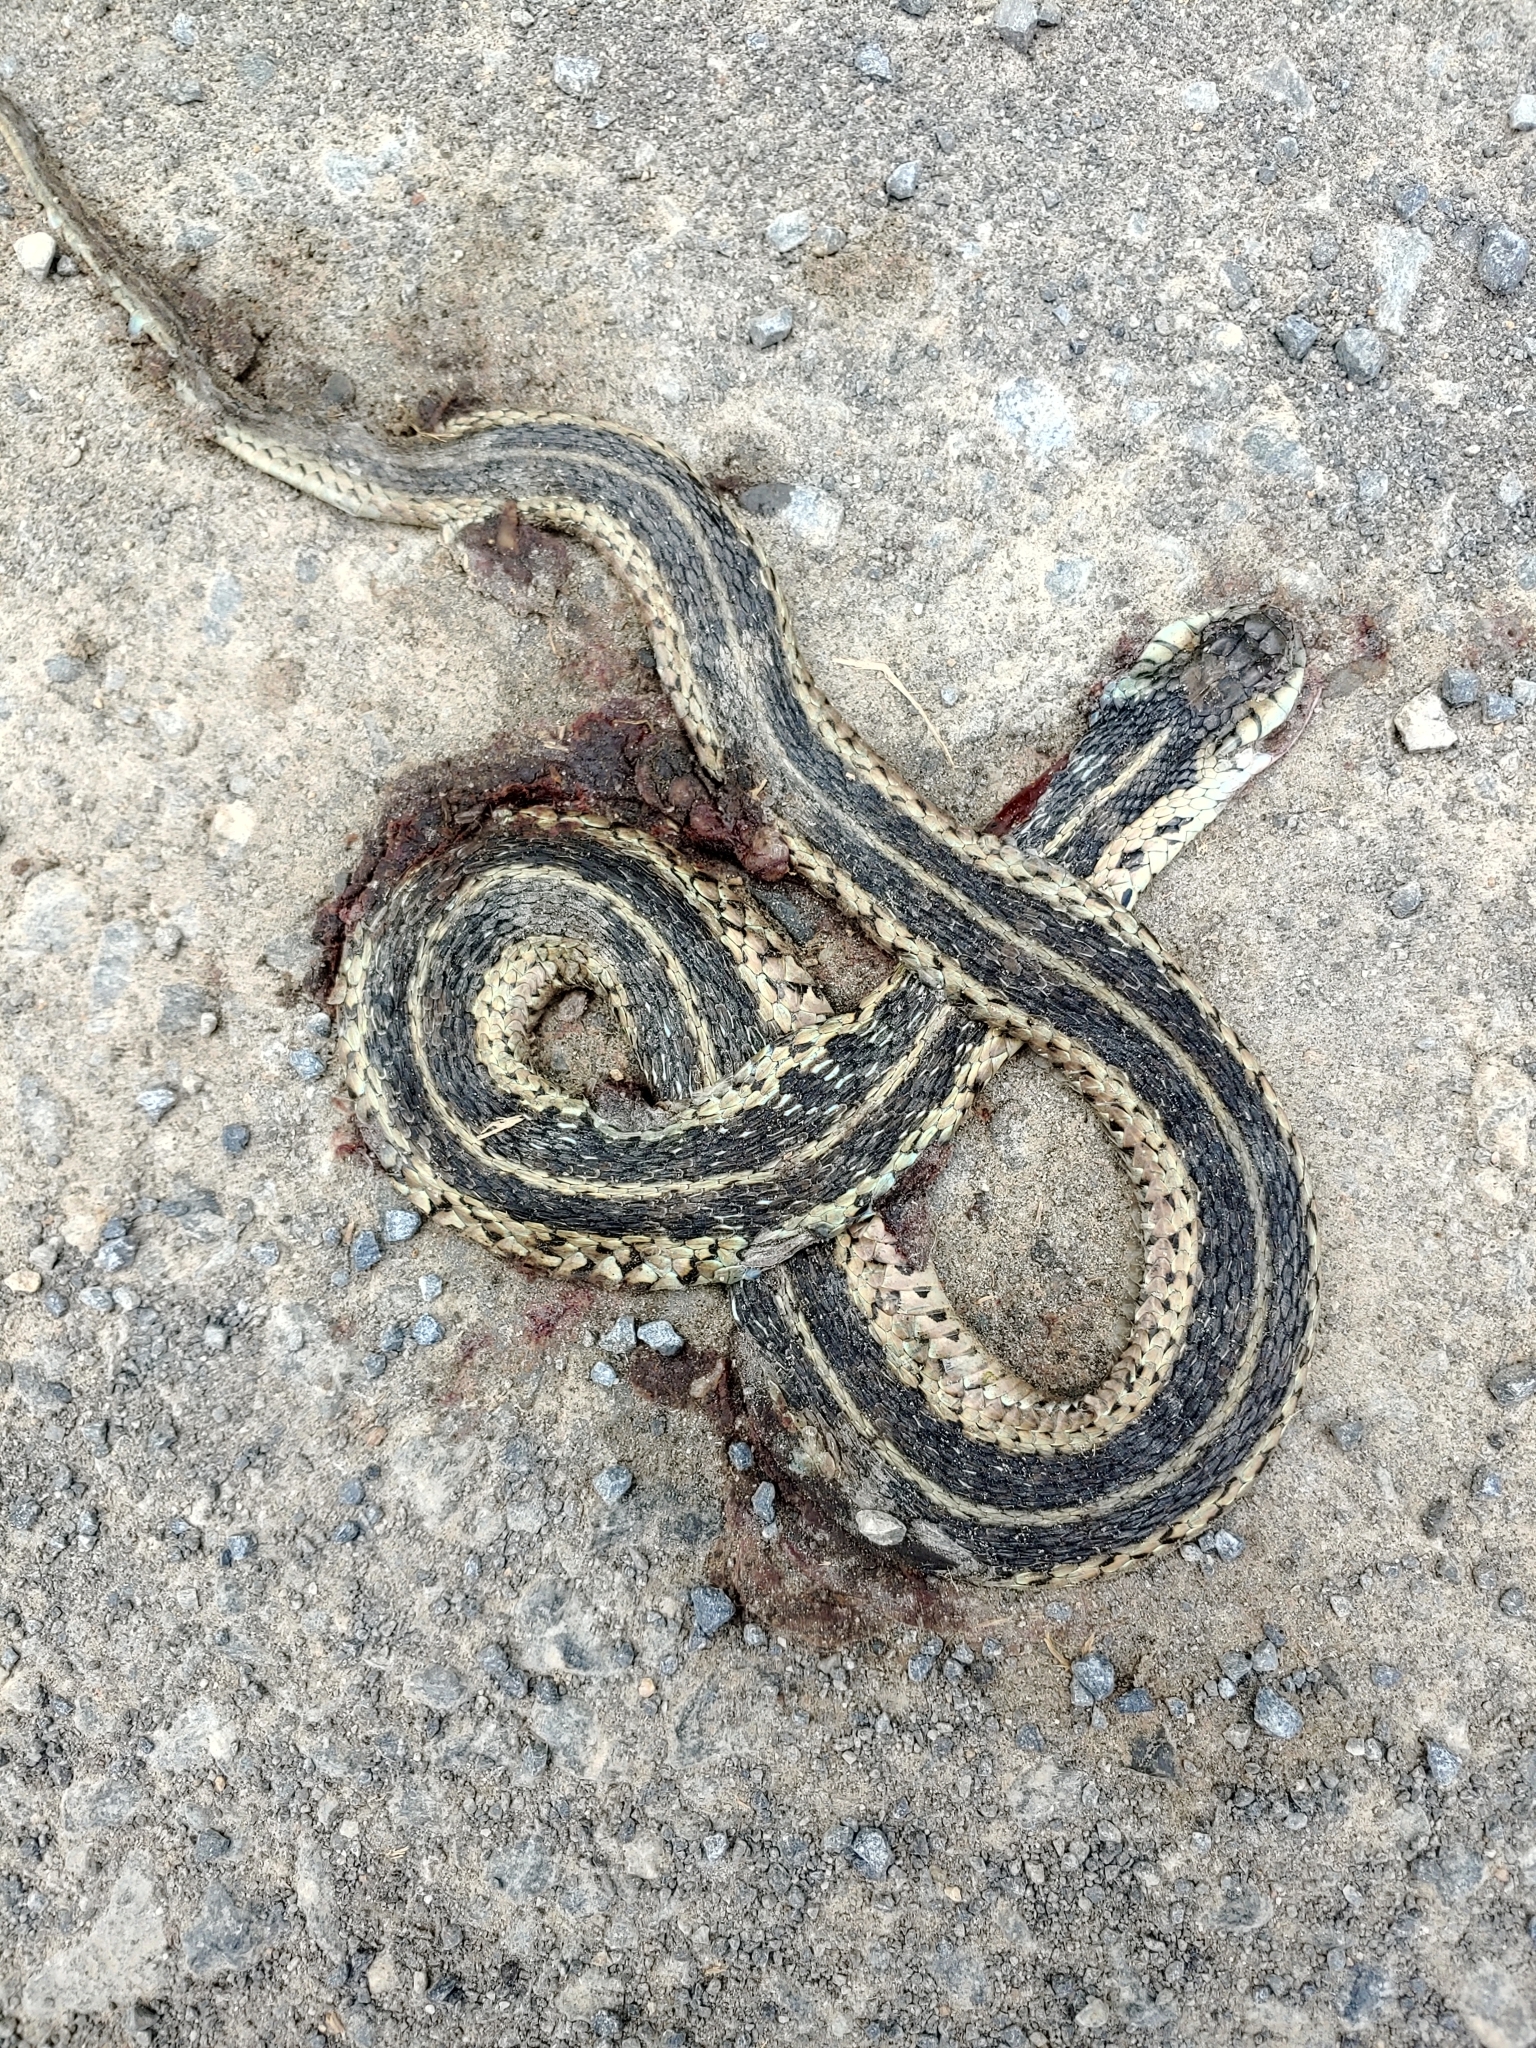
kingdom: Animalia
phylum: Chordata
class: Squamata
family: Colubridae
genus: Thamnophis
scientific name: Thamnophis sirtalis
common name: Common garter snake
